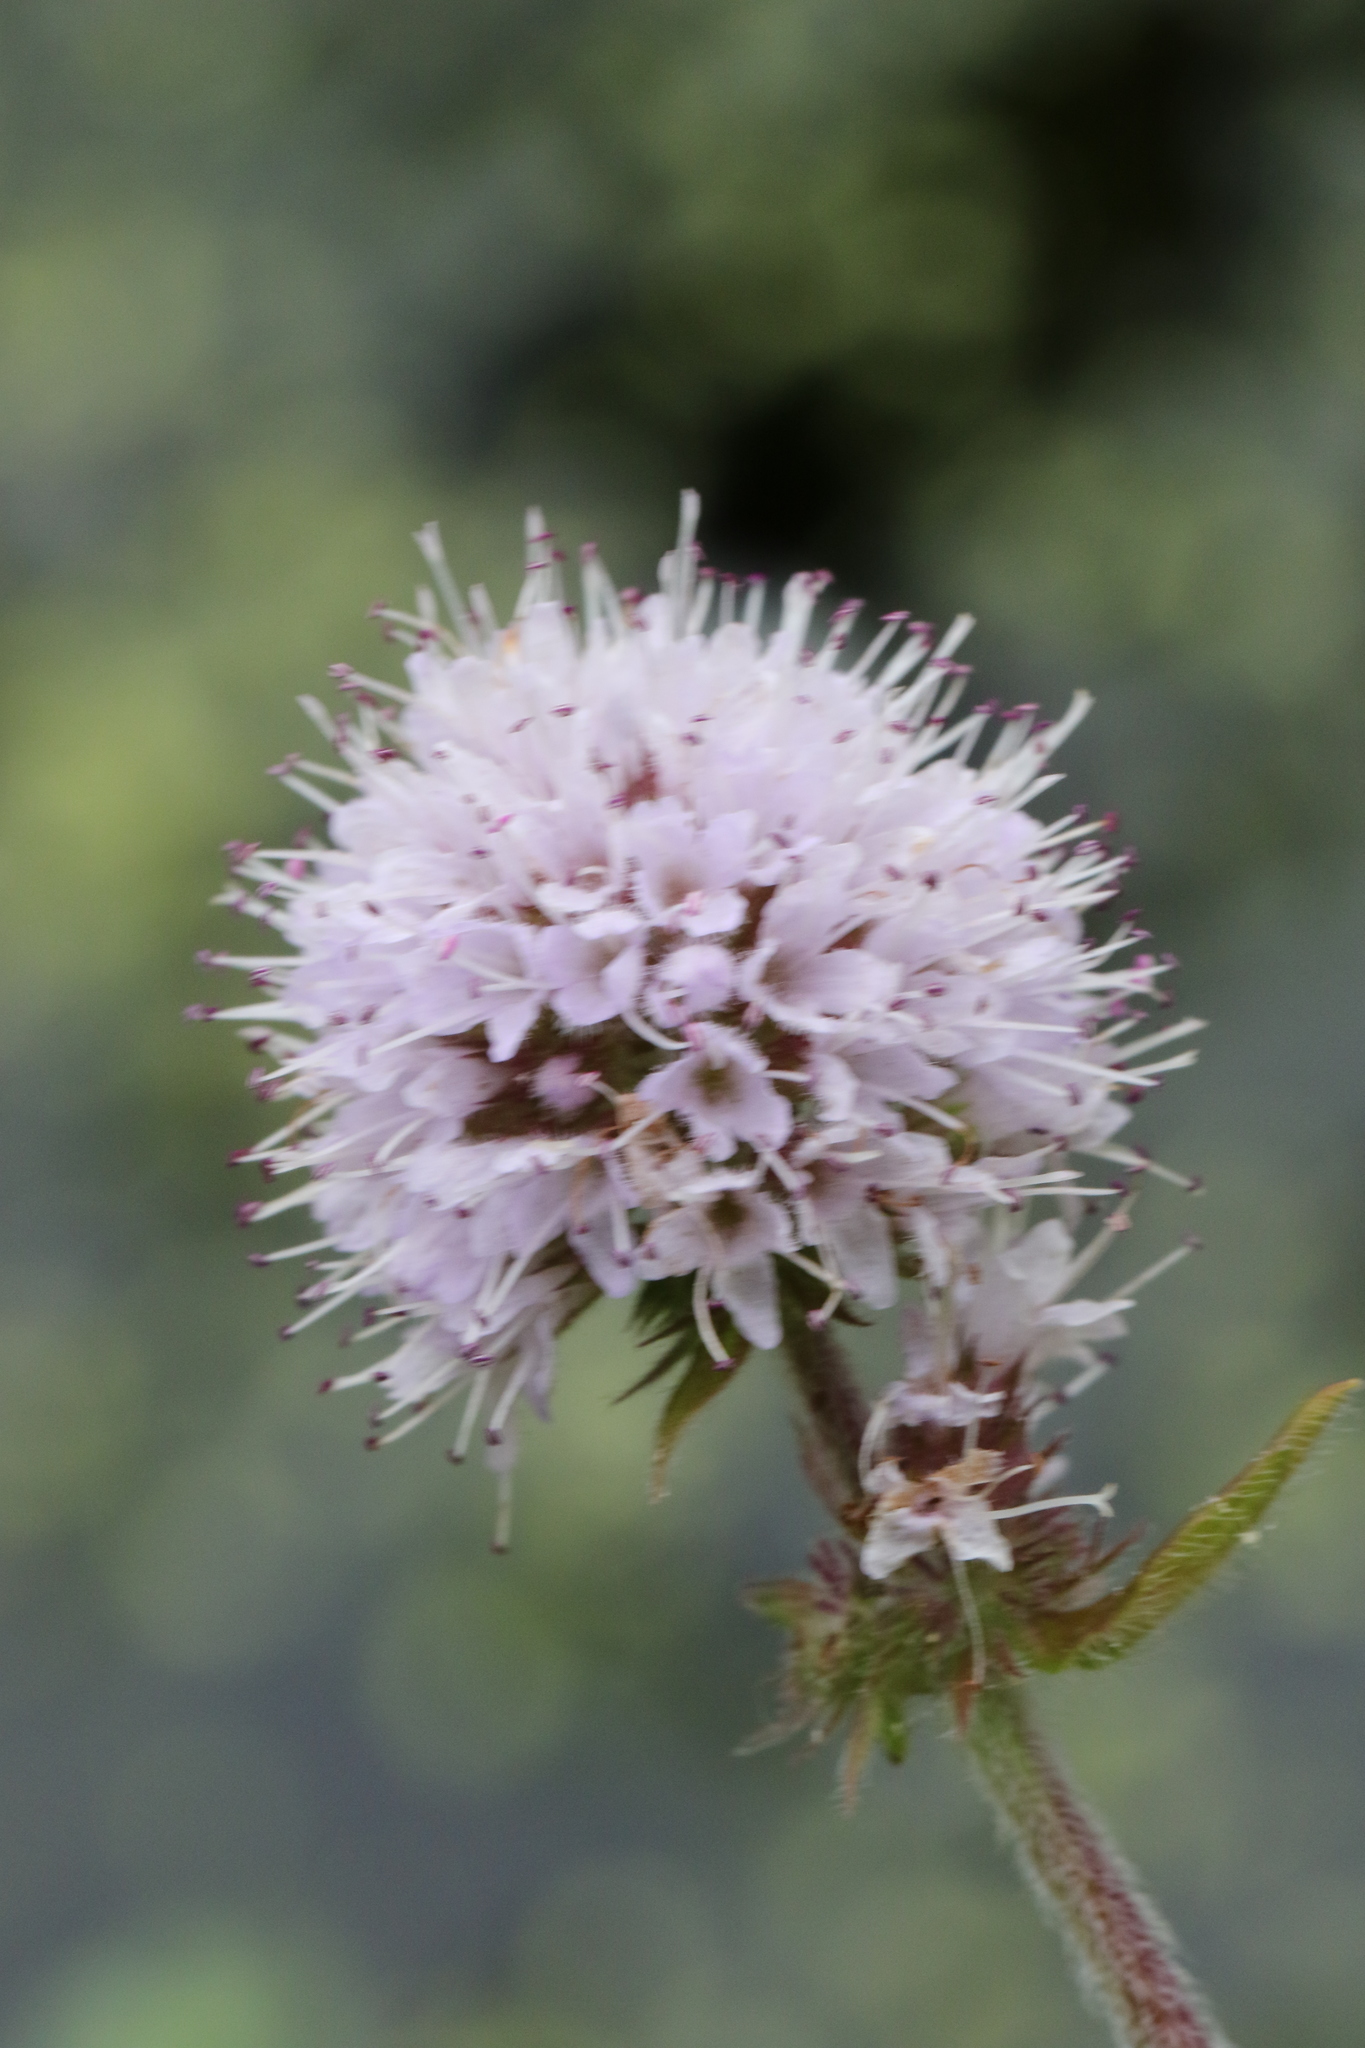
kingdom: Plantae
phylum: Tracheophyta
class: Magnoliopsida
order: Lamiales
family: Lamiaceae
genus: Mentha
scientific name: Mentha aquatica
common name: Water mint
